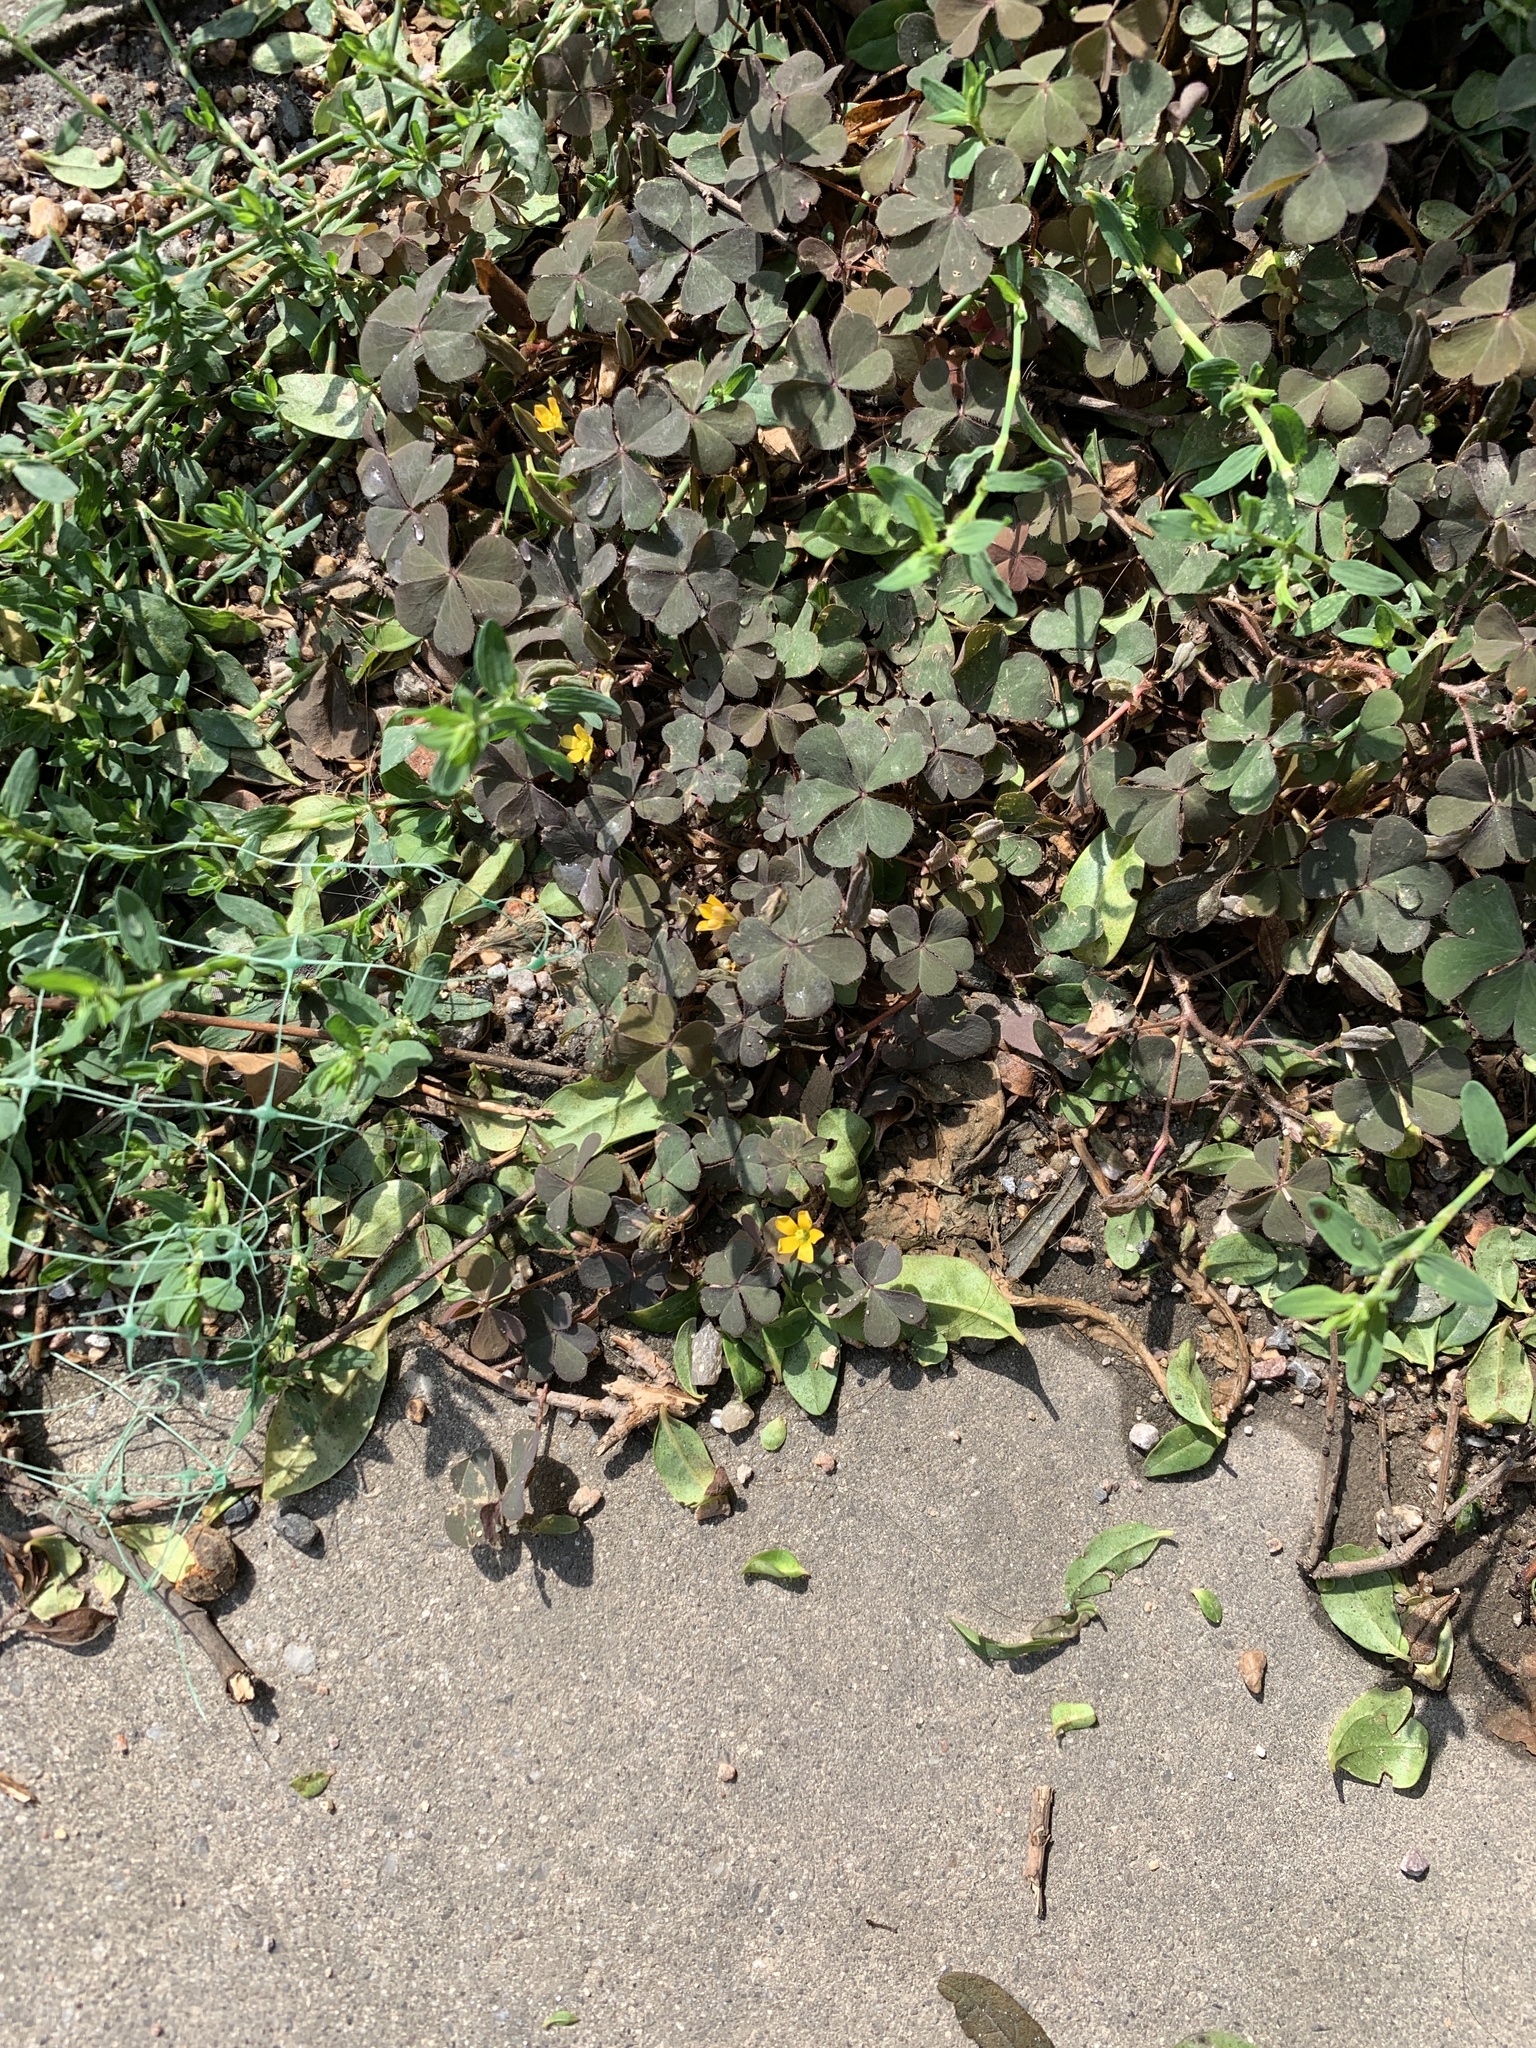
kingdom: Plantae
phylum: Tracheophyta
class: Magnoliopsida
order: Oxalidales
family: Oxalidaceae
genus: Oxalis
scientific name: Oxalis corniculata
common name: Procumbent yellow-sorrel
